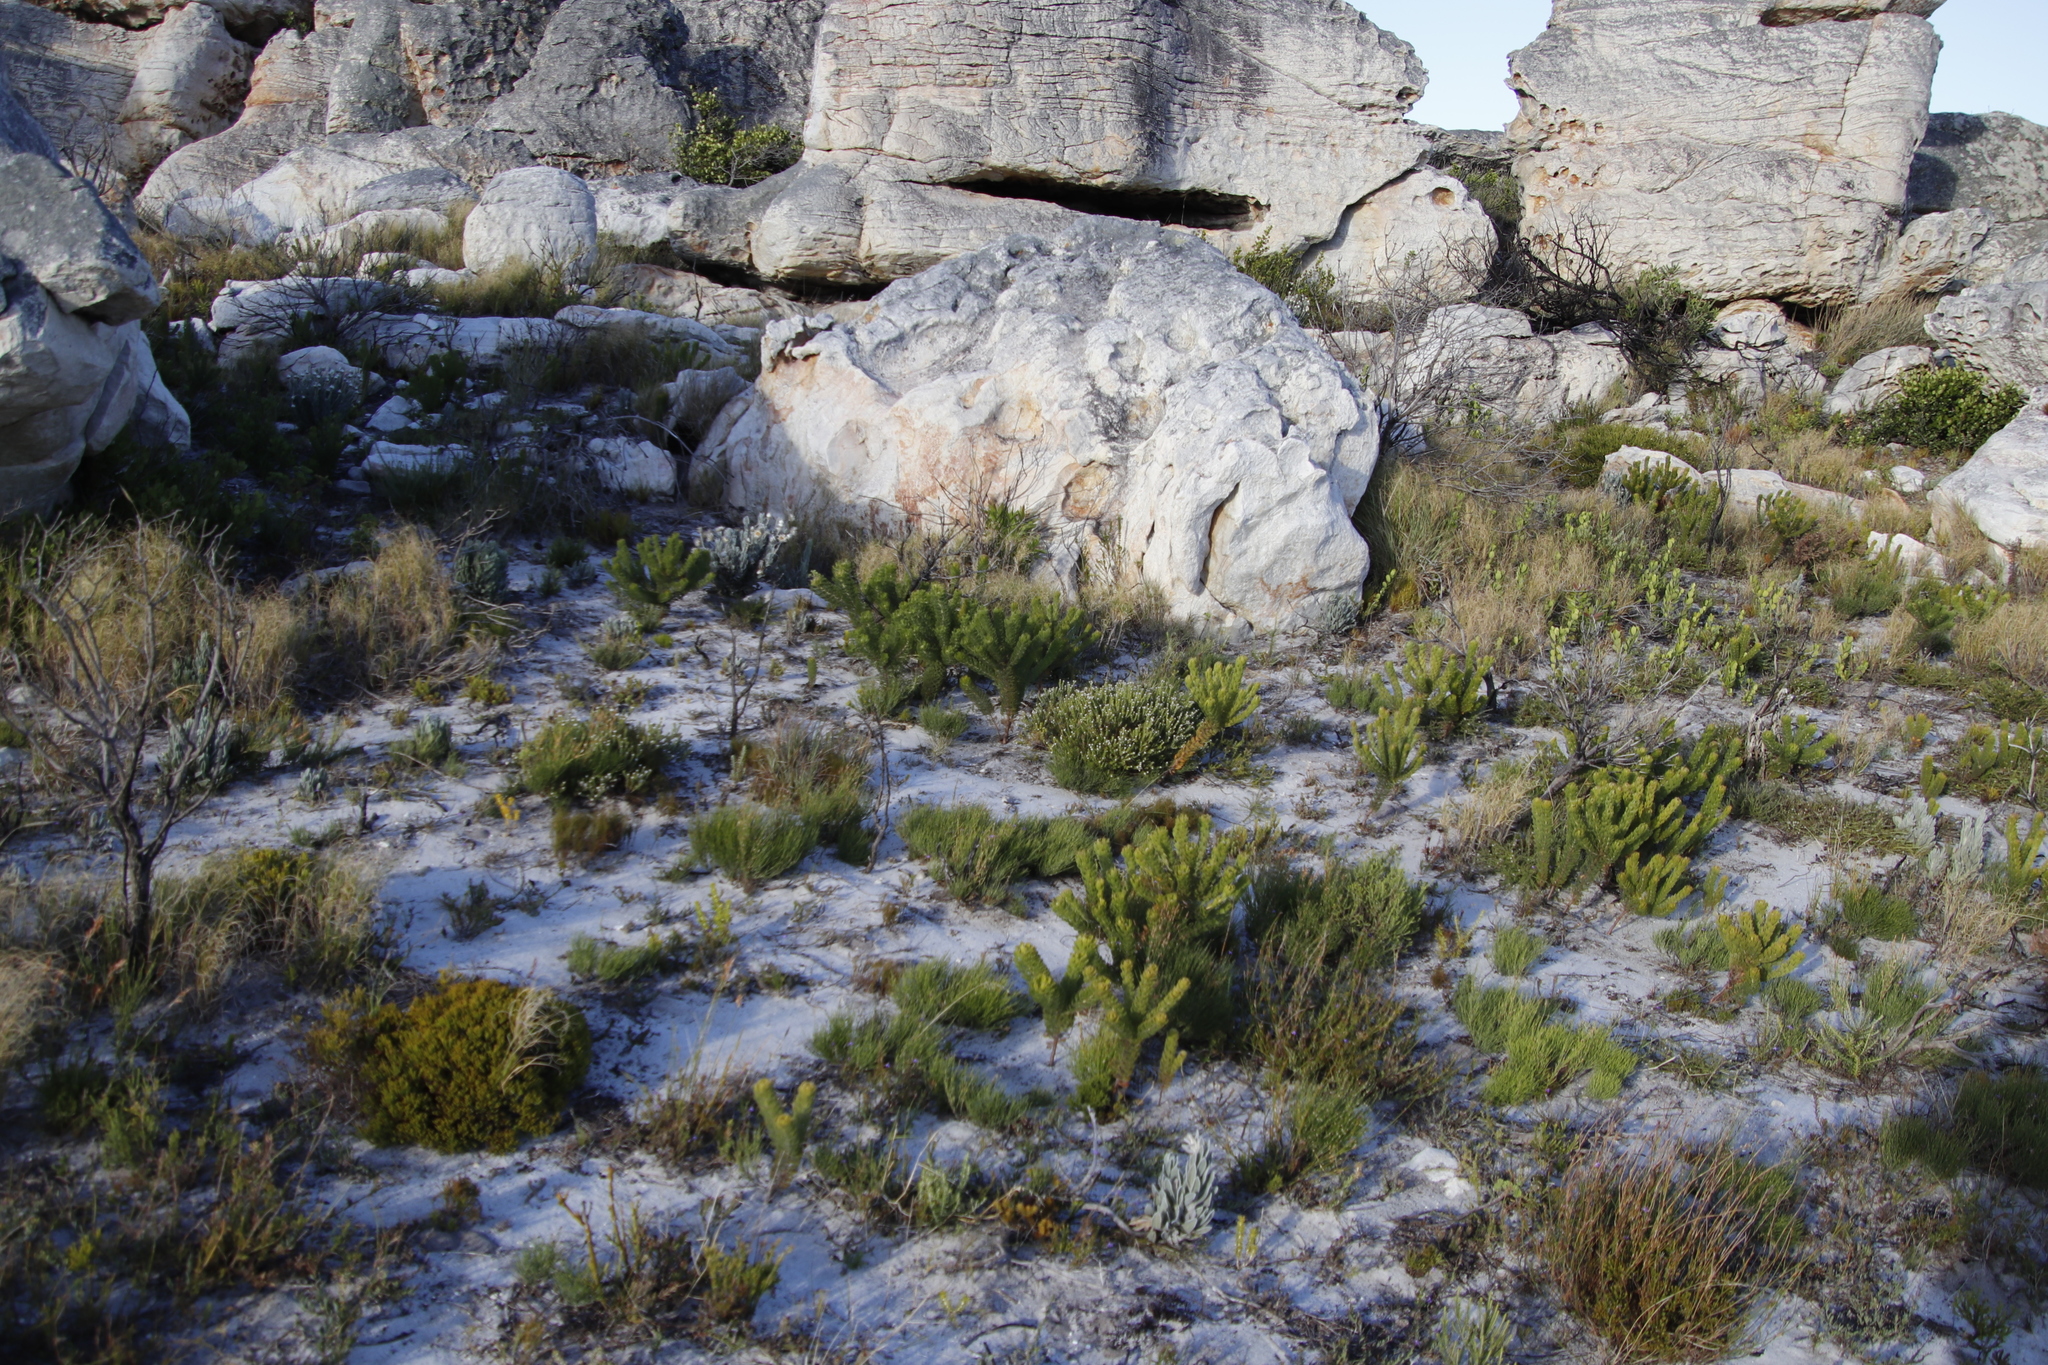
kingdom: Plantae
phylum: Tracheophyta
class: Magnoliopsida
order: Proteales
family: Proteaceae
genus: Serruria
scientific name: Serruria villosa
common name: Golden spiderhead
